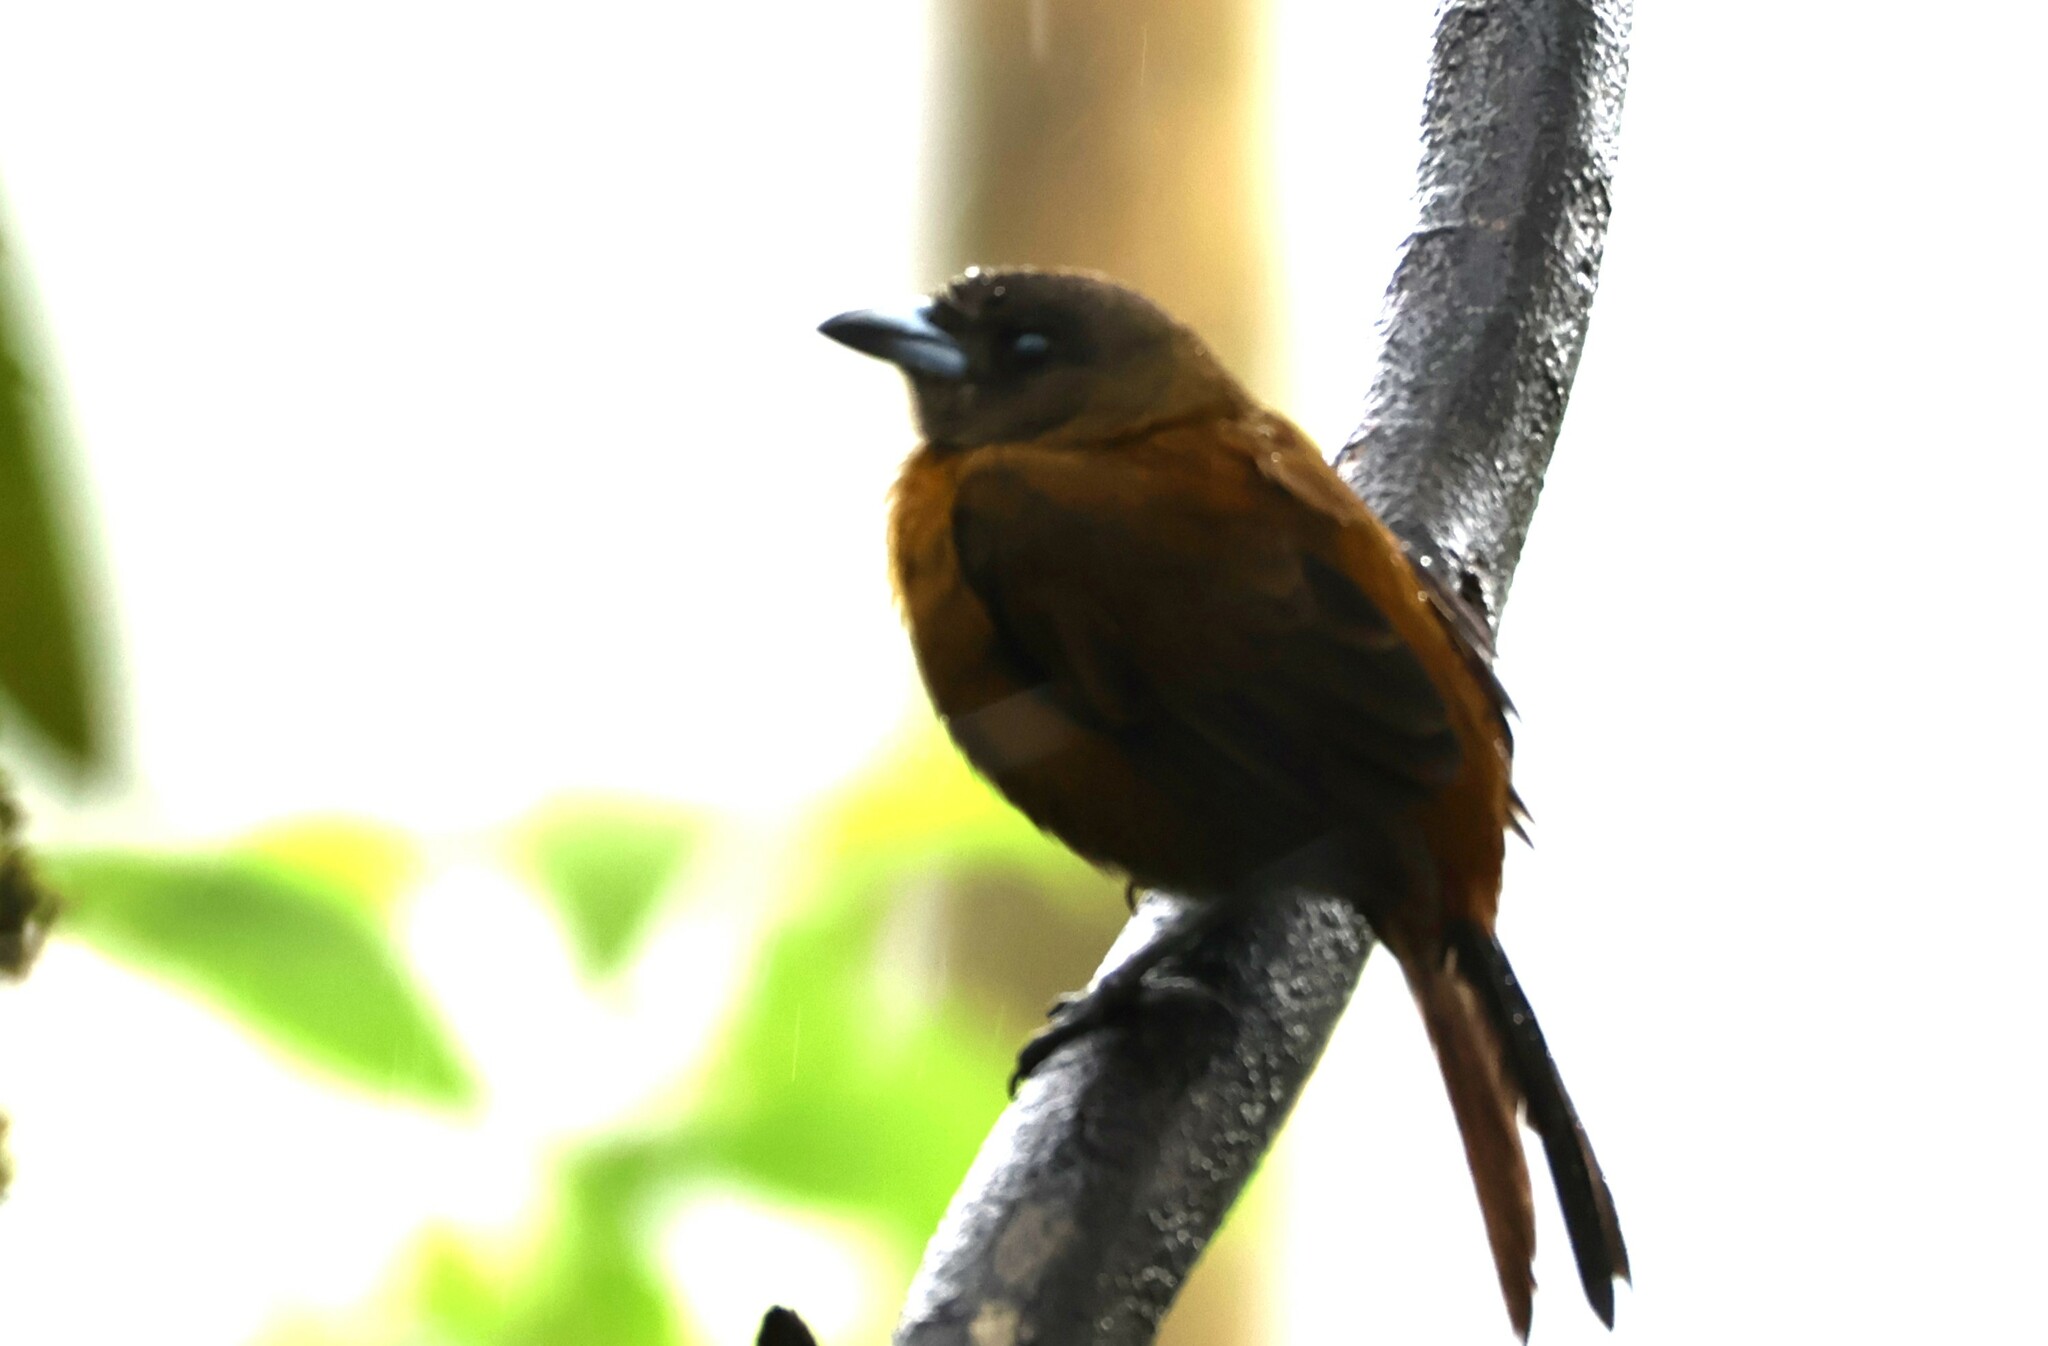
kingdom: Animalia
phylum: Chordata
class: Aves
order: Passeriformes
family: Thraupidae
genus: Ramphocelus
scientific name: Ramphocelus passerinii
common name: Passerini's tanager
